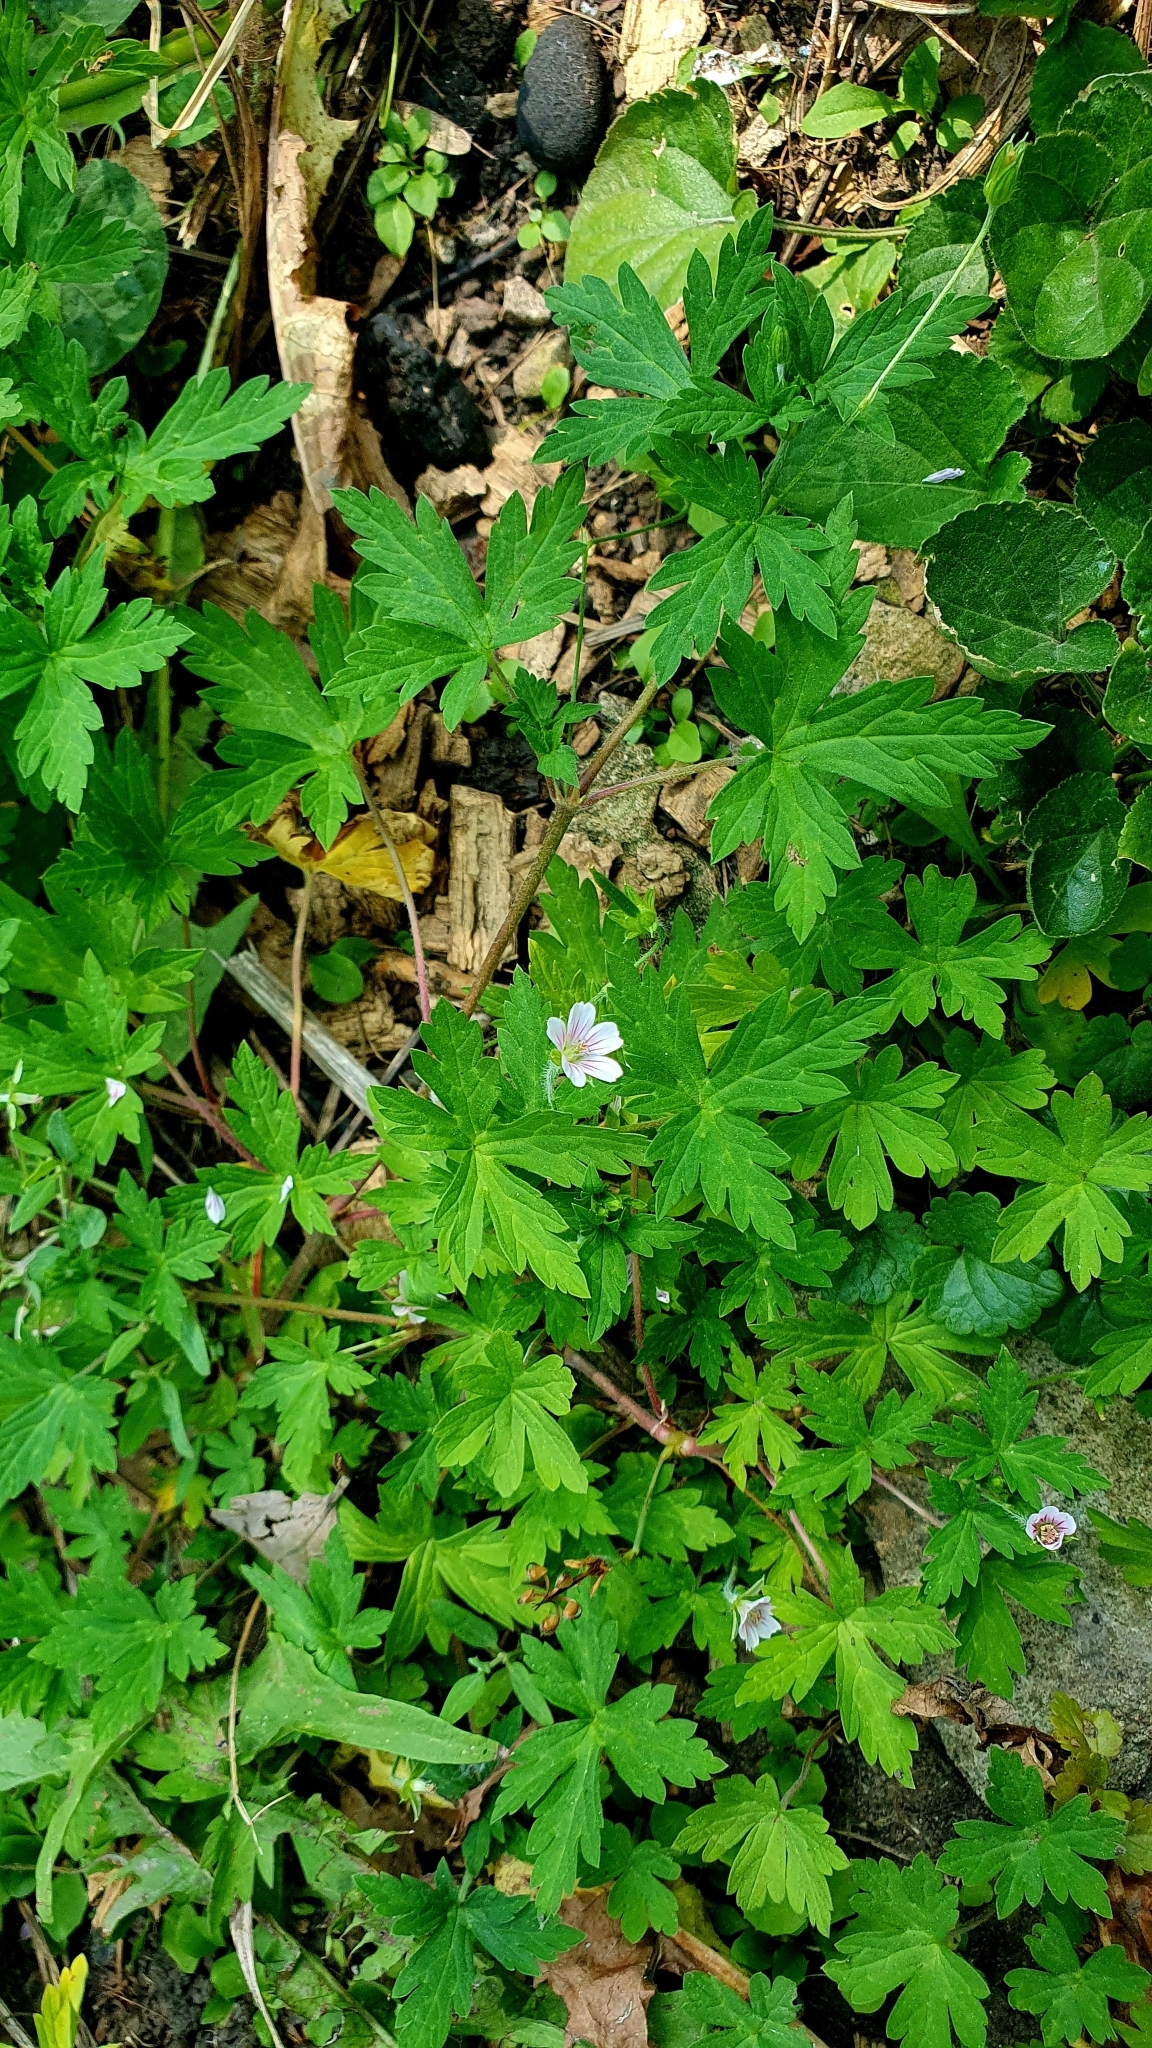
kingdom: Plantae
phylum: Tracheophyta
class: Magnoliopsida
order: Geraniales
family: Geraniaceae
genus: Geranium
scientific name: Geranium sibiricum
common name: Siberian crane's-bill
